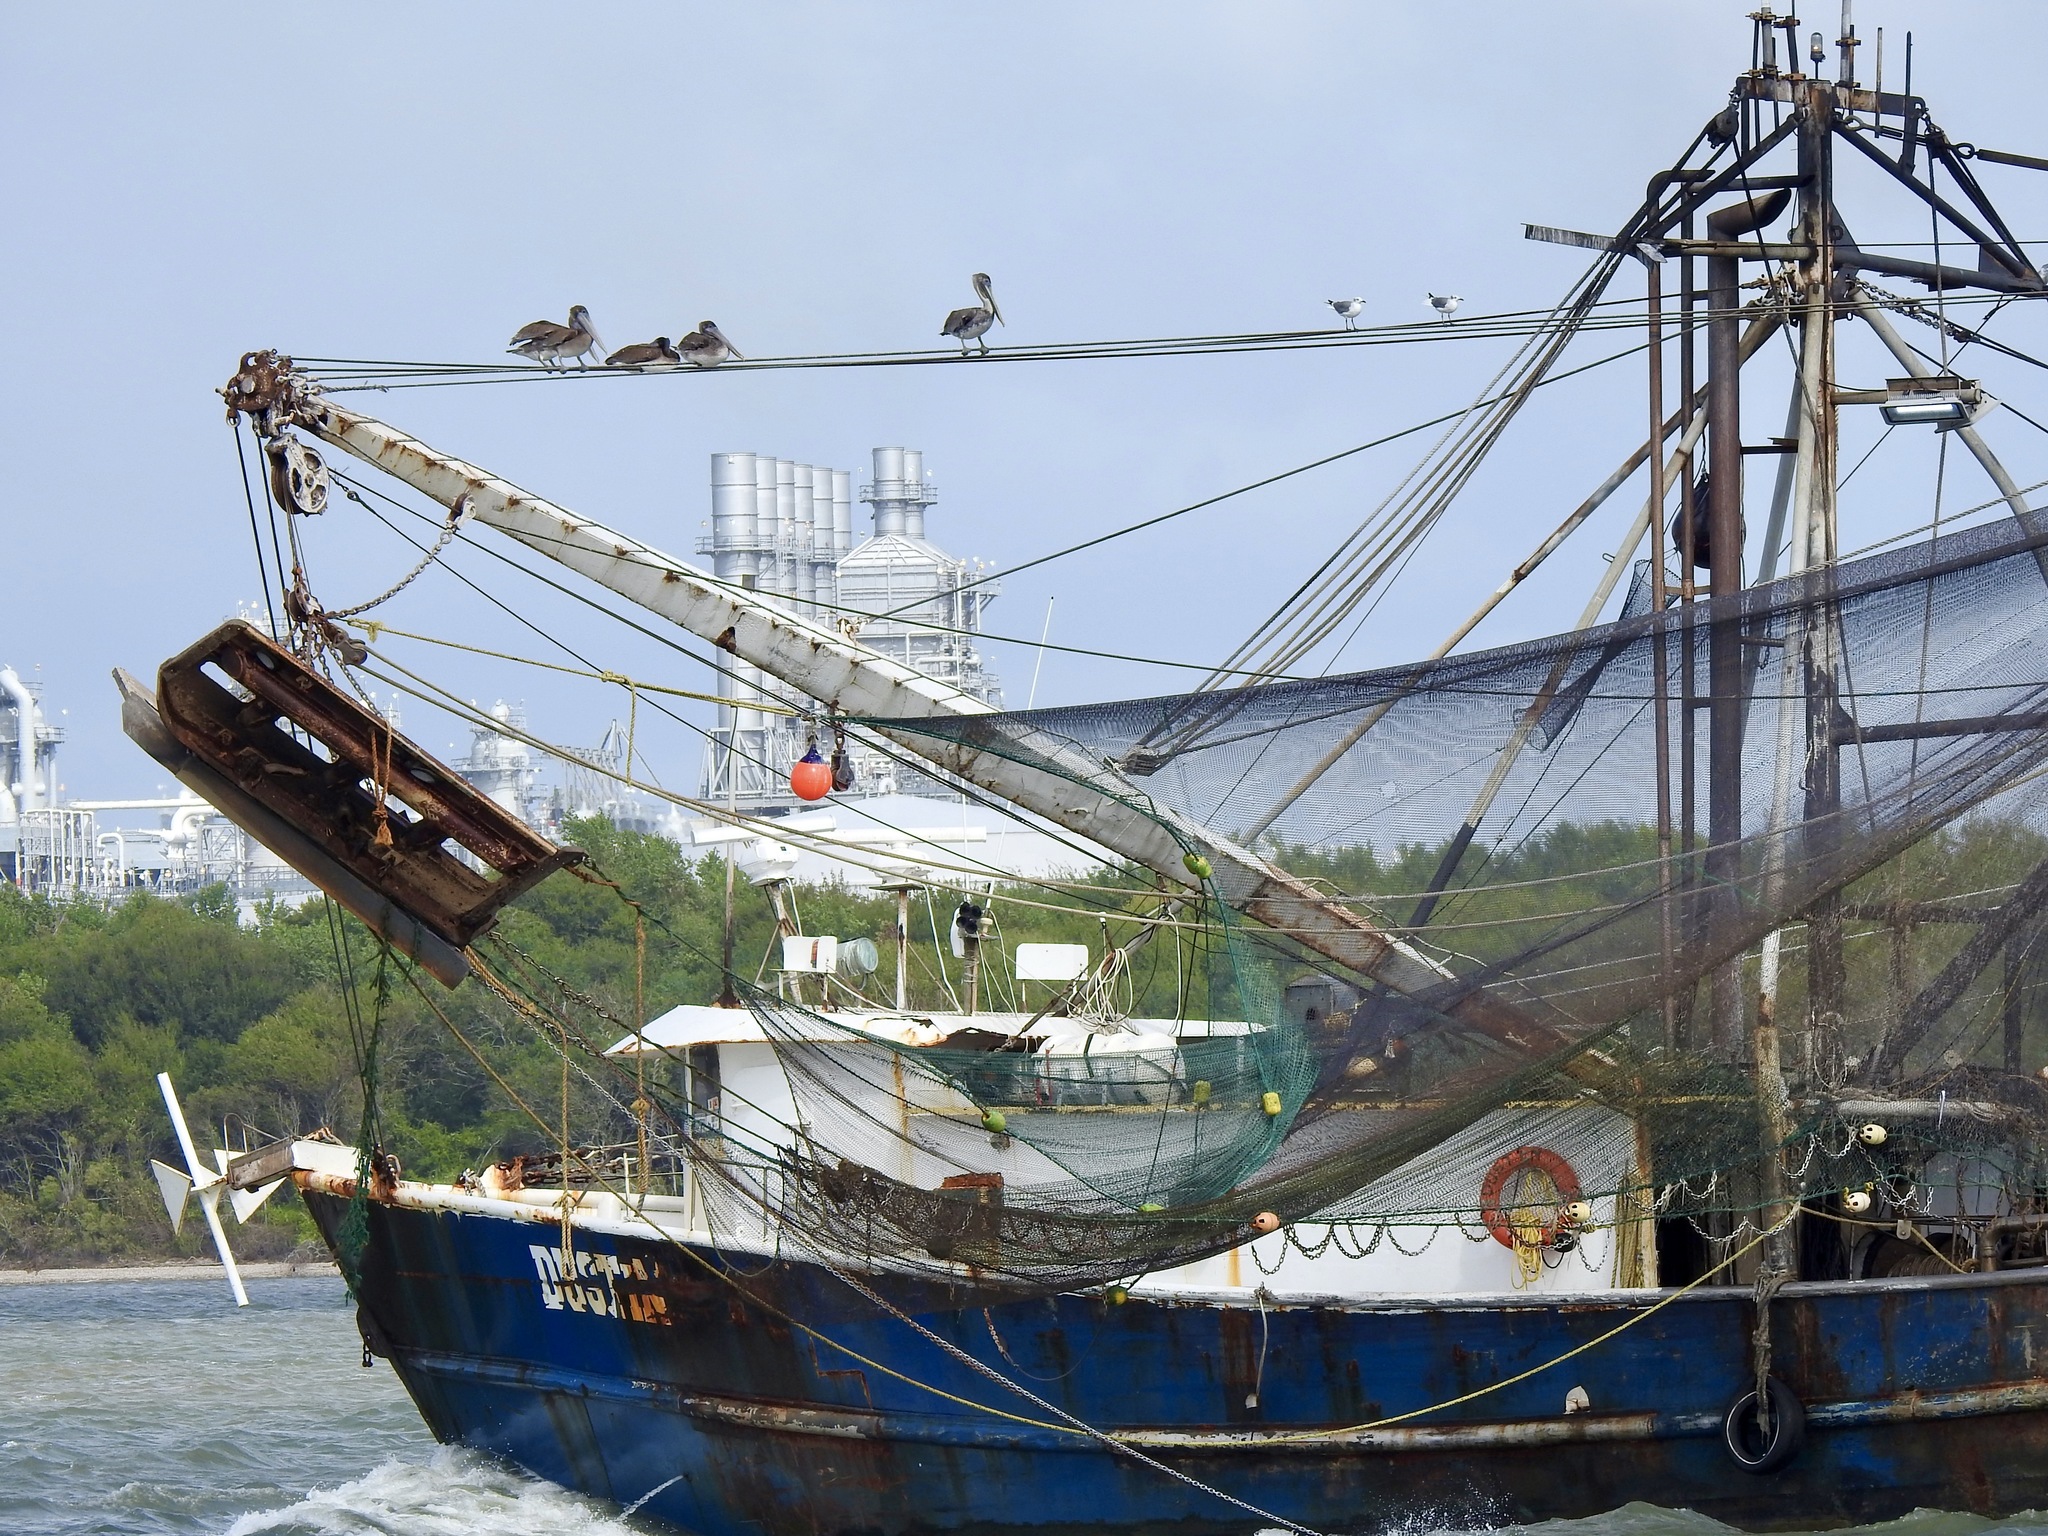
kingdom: Animalia
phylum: Chordata
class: Aves
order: Pelecaniformes
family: Pelecanidae
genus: Pelecanus
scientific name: Pelecanus occidentalis
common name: Brown pelican
